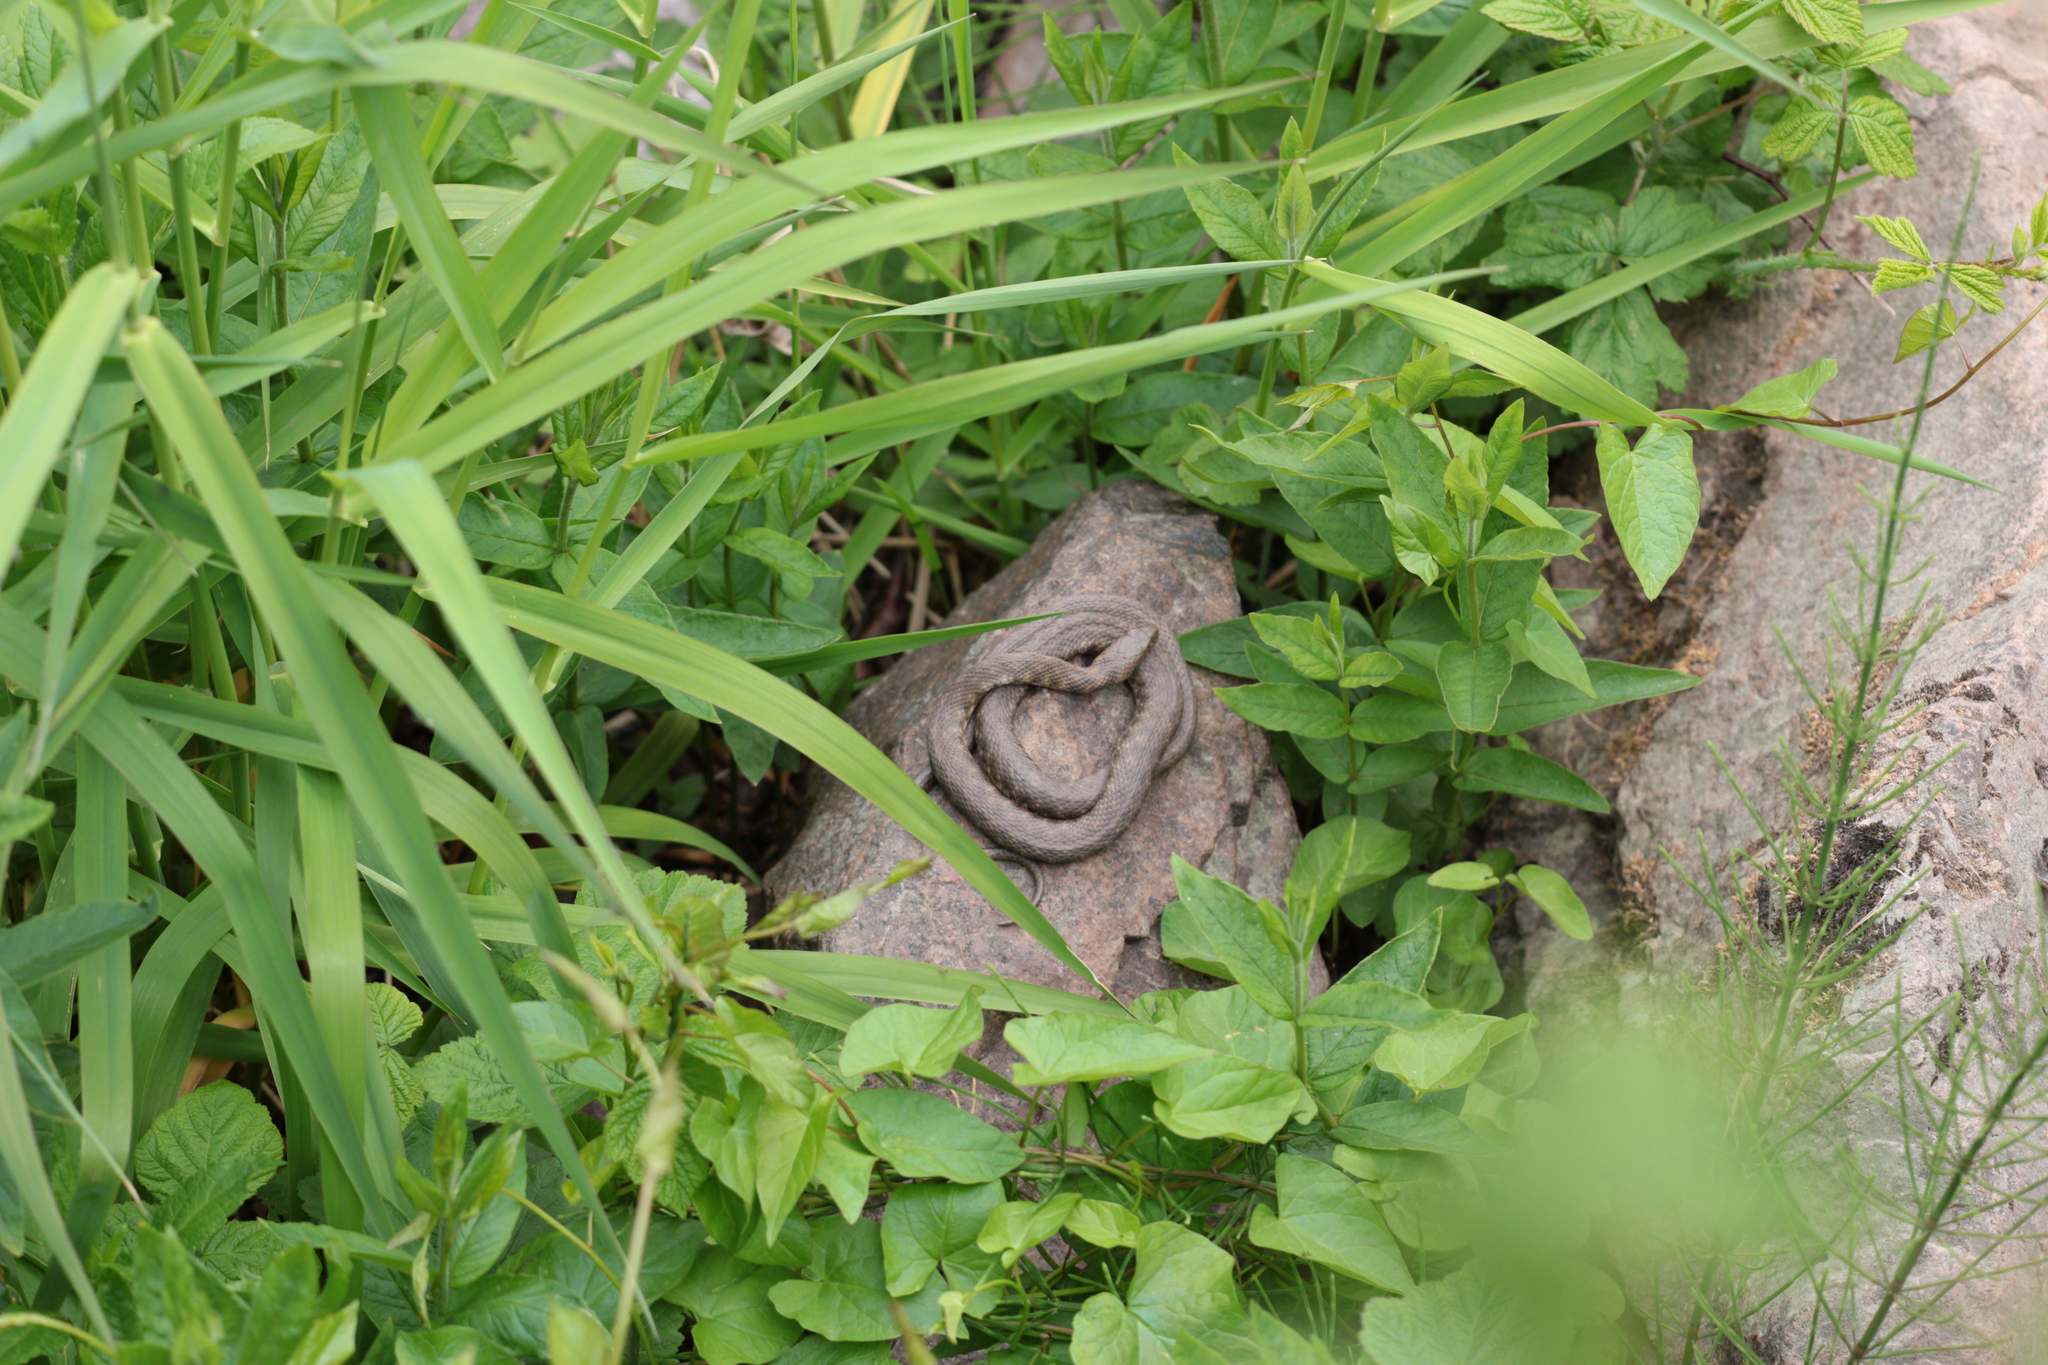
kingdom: Animalia
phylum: Chordata
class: Squamata
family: Colubridae
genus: Natrix
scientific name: Natrix tessellata
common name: Dice snake
